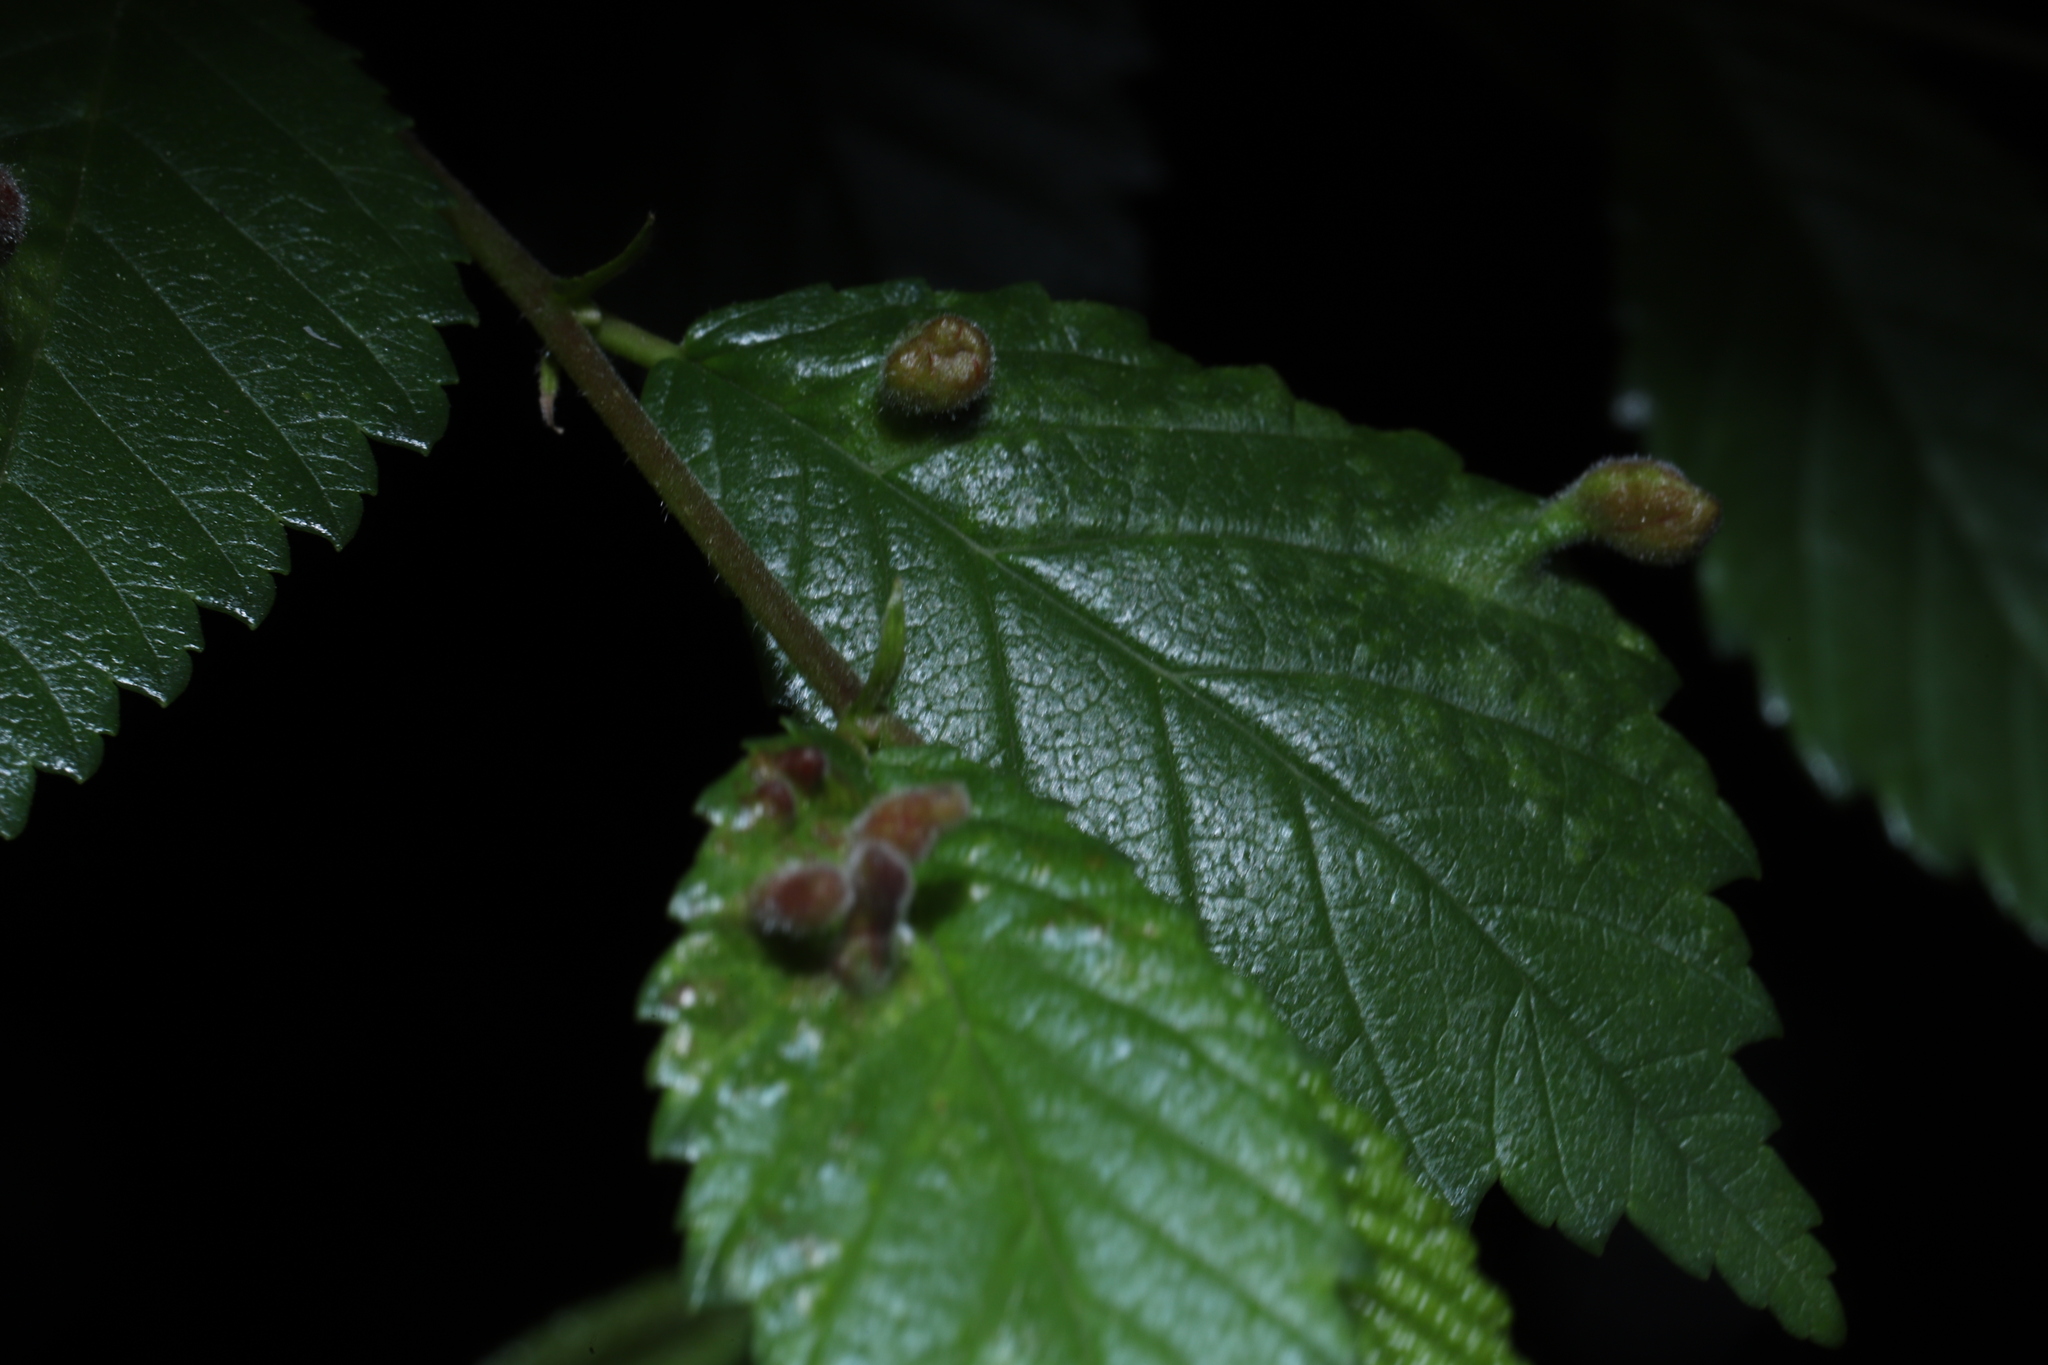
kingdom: Animalia
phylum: Arthropoda
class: Insecta
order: Hemiptera
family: Aphididae
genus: Tetraneura
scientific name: Tetraneura nigriabdominalis
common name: Aphid
